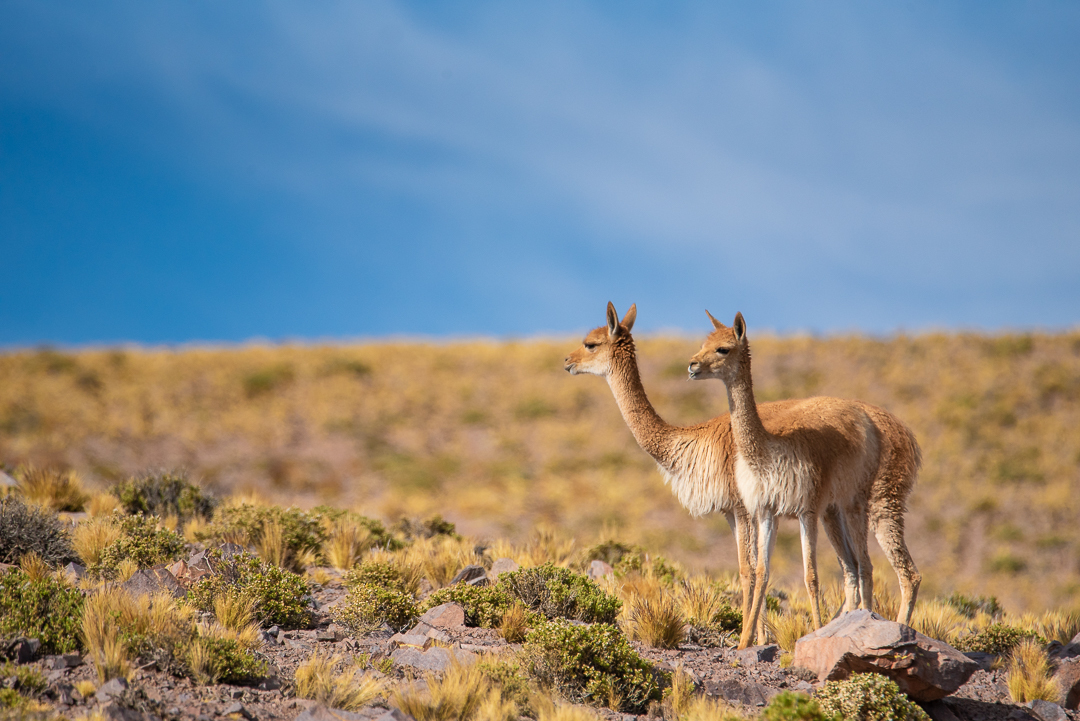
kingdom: Animalia
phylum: Chordata
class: Mammalia
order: Artiodactyla
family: Camelidae
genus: Vicugna
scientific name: Vicugna vicugna
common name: Vicugna
